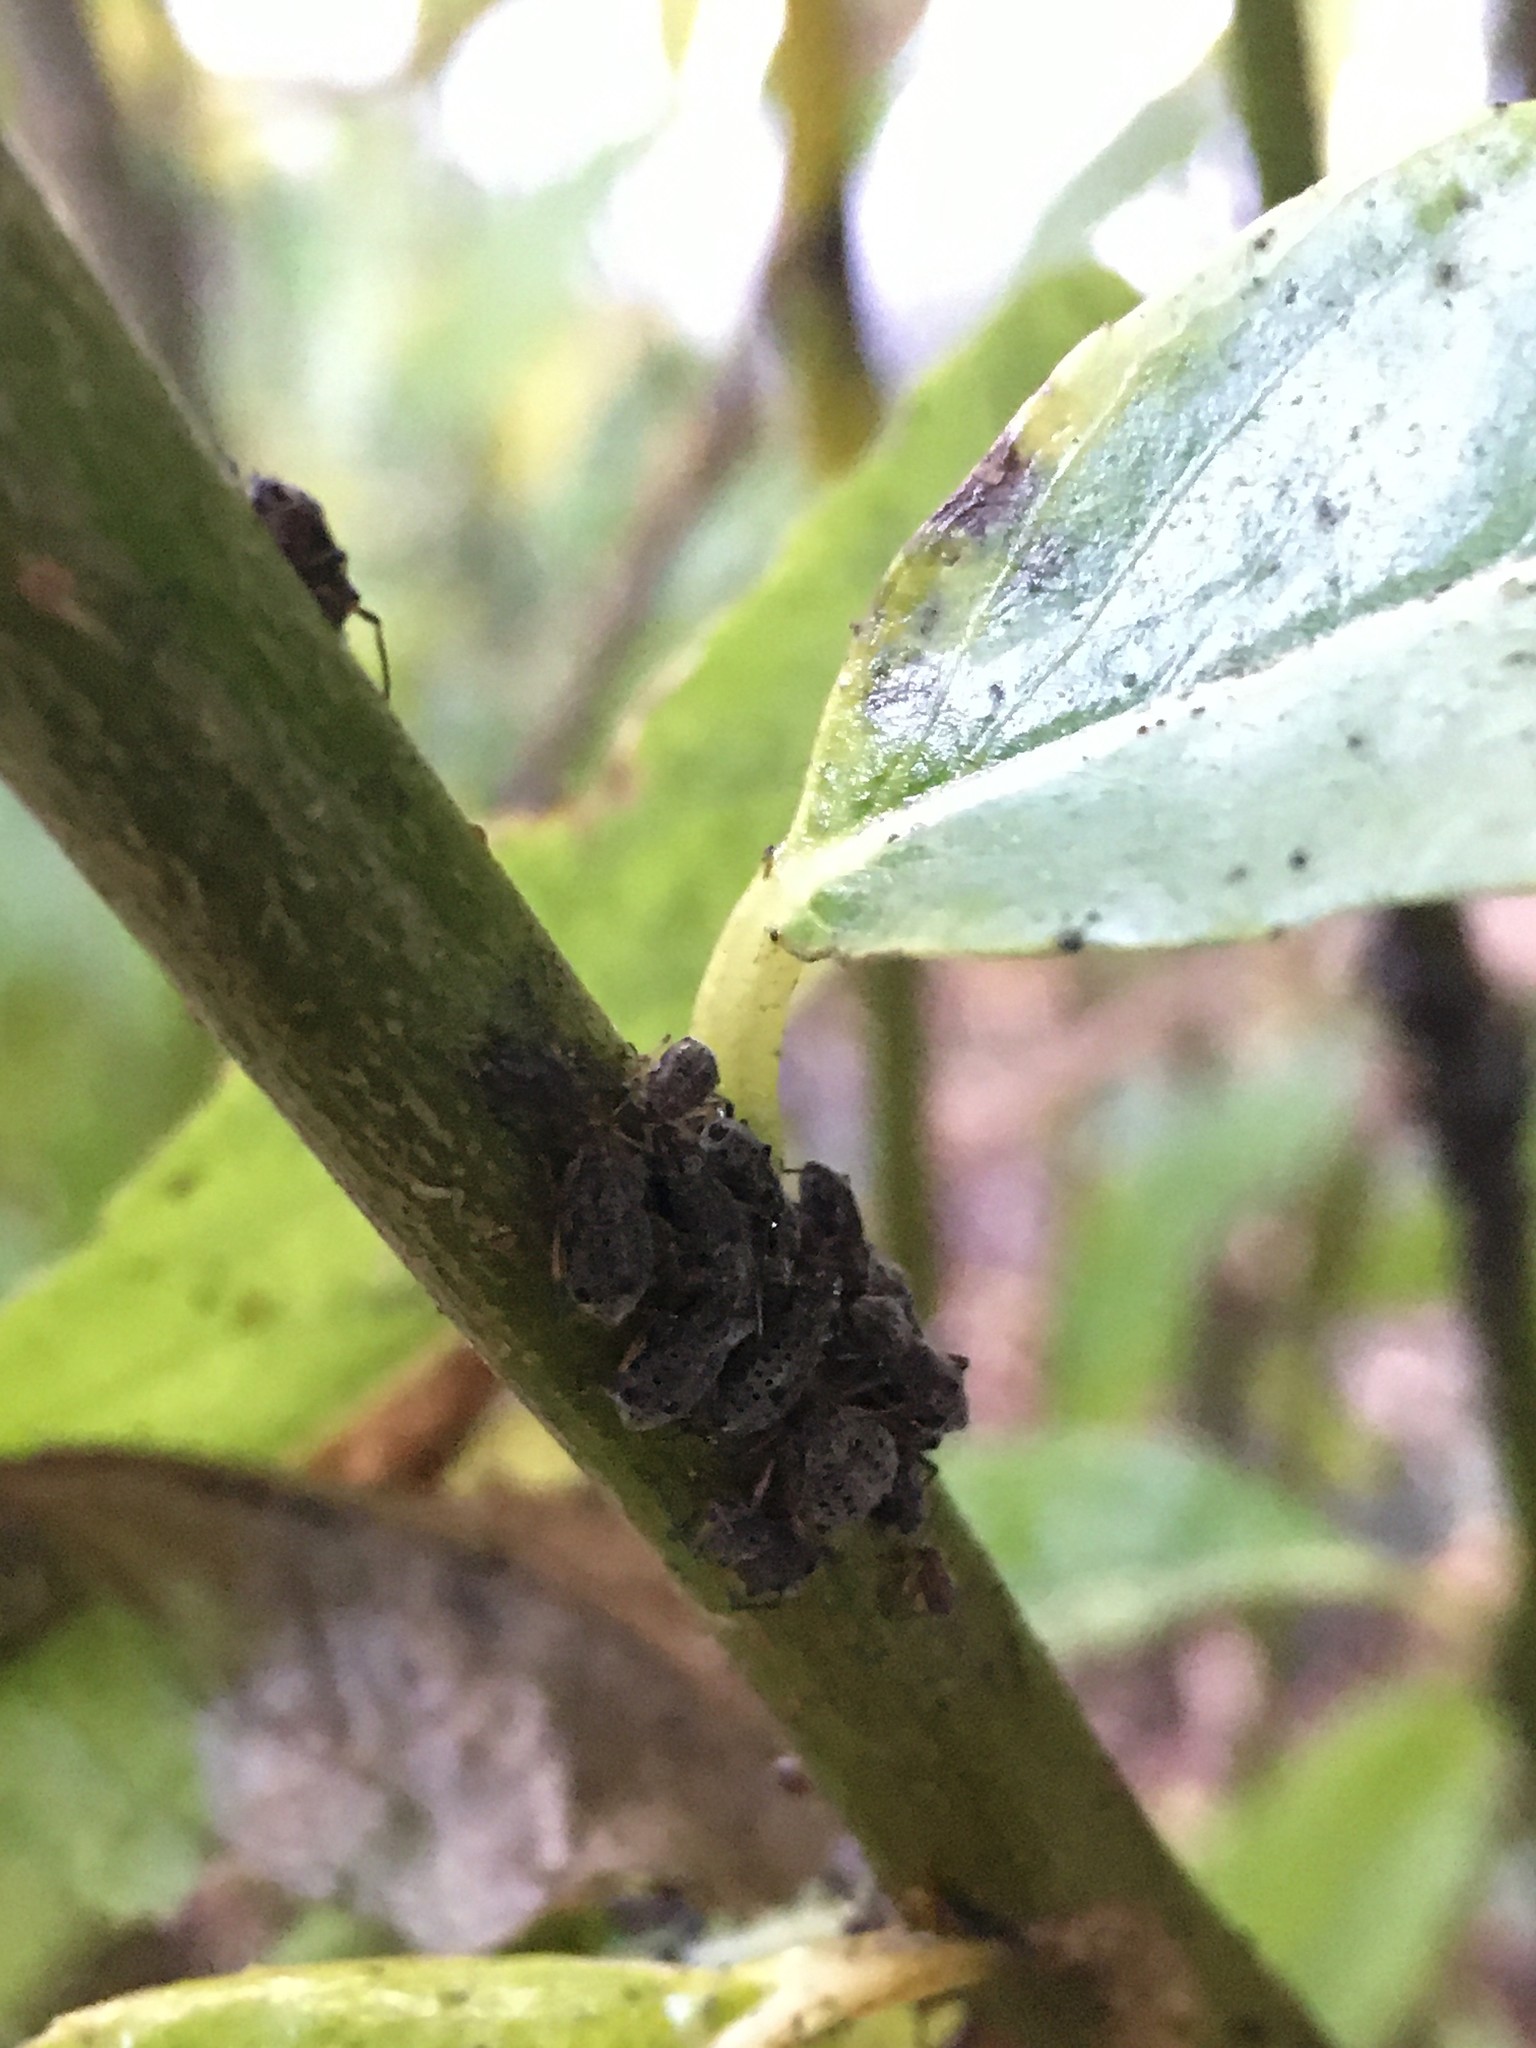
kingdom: Animalia
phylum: Arthropoda
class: Insecta
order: Hemiptera
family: Aphididae
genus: Tuberolachnus
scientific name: Tuberolachnus salignus
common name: Giant willow aphid
